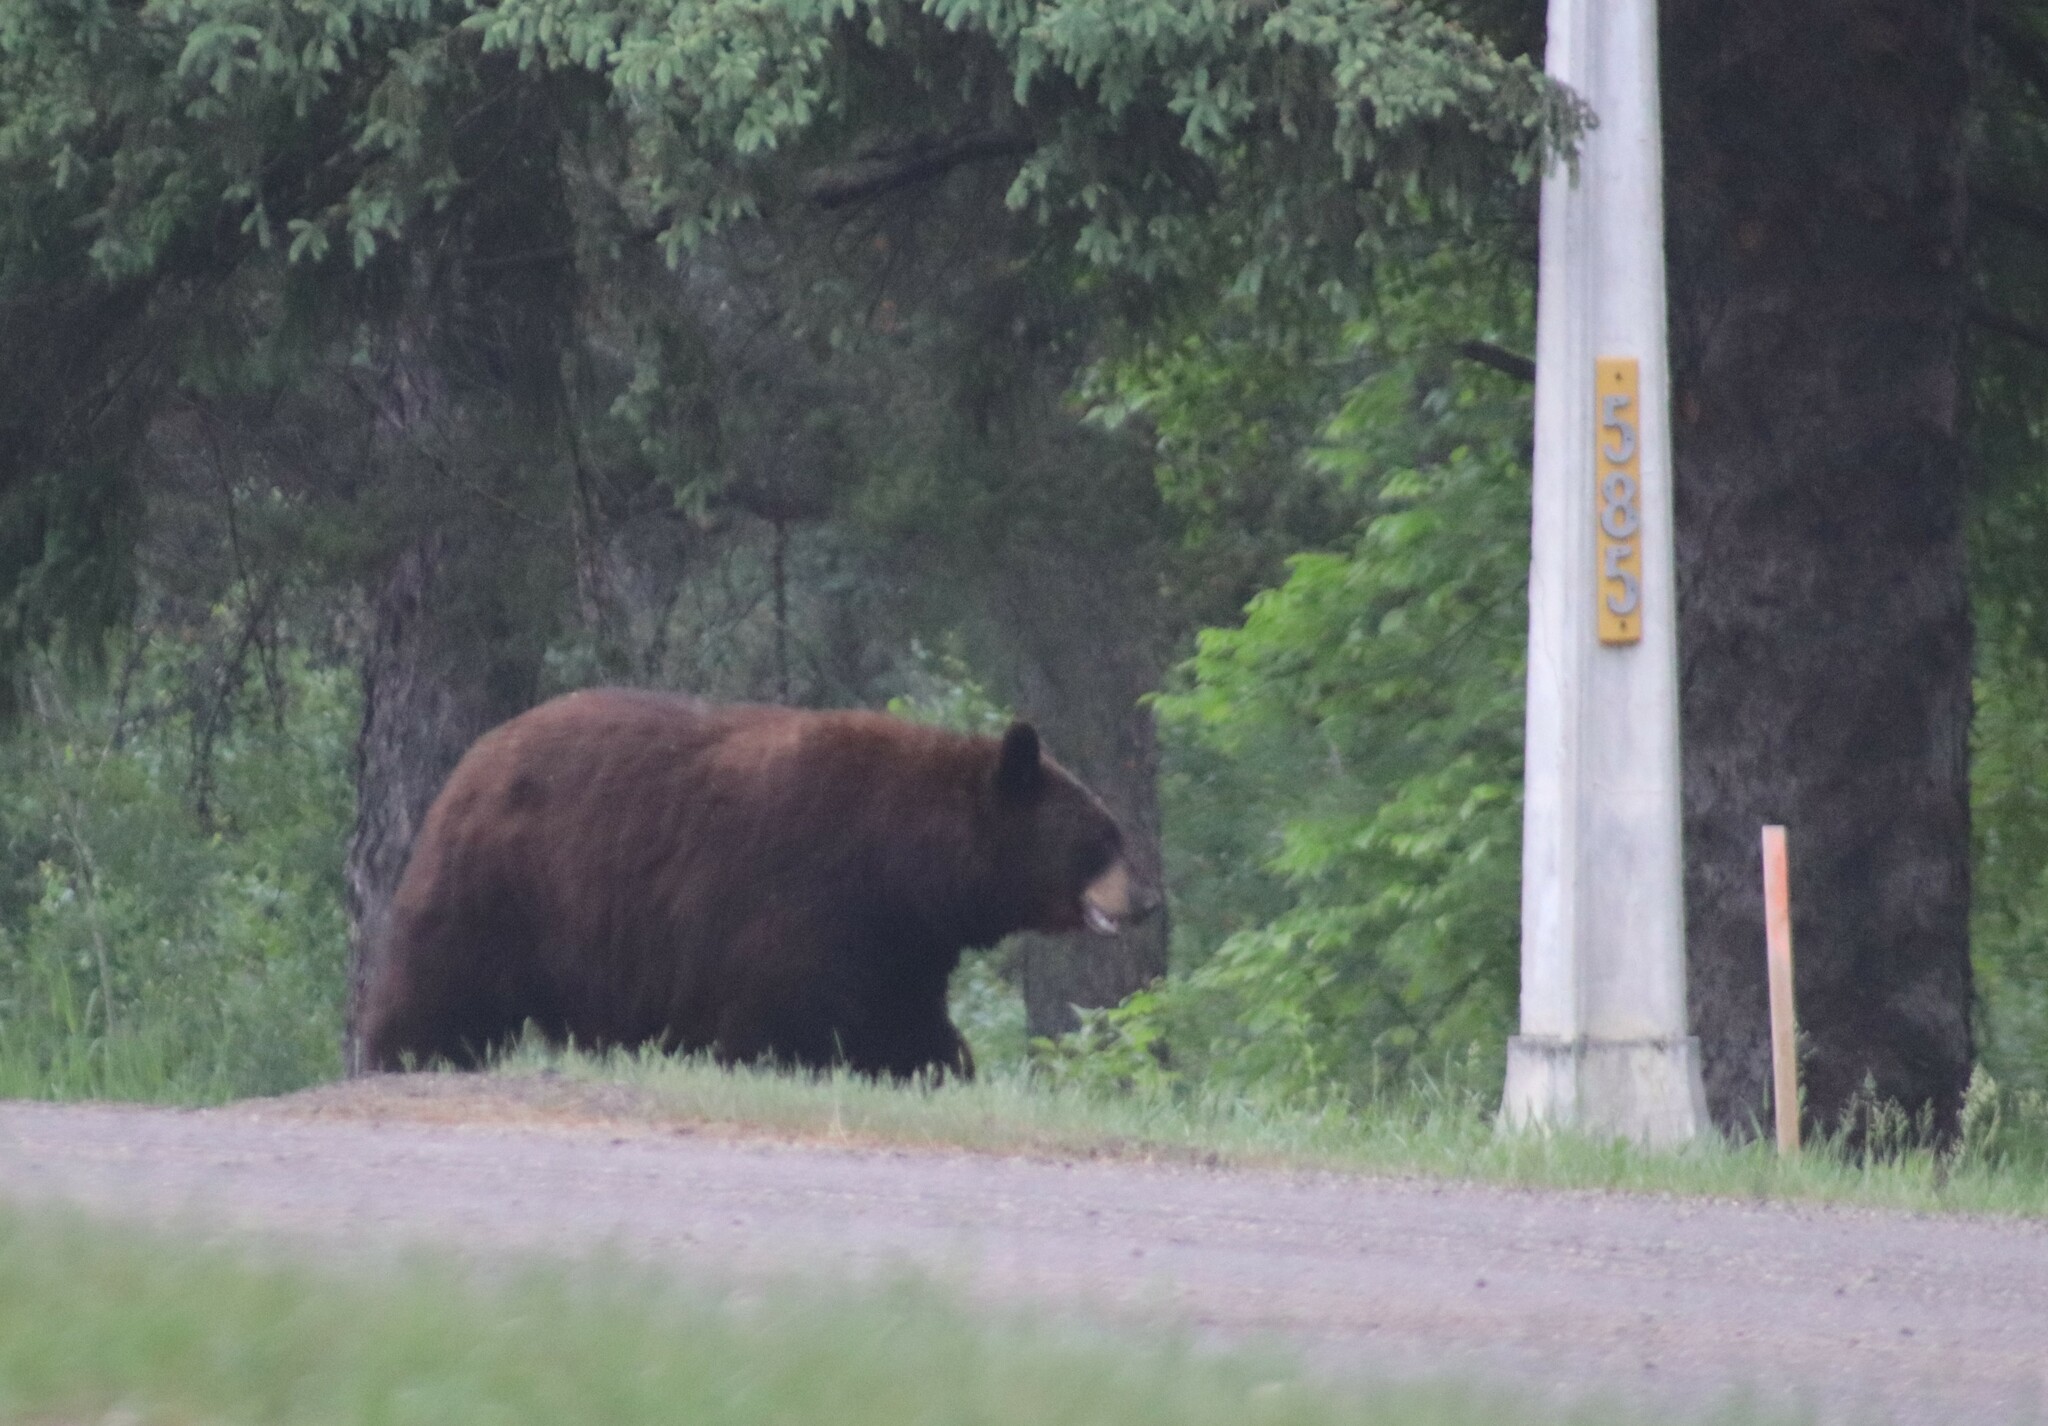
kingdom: Animalia
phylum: Chordata
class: Mammalia
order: Carnivora
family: Ursidae
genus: Ursus
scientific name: Ursus americanus
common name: American black bear
